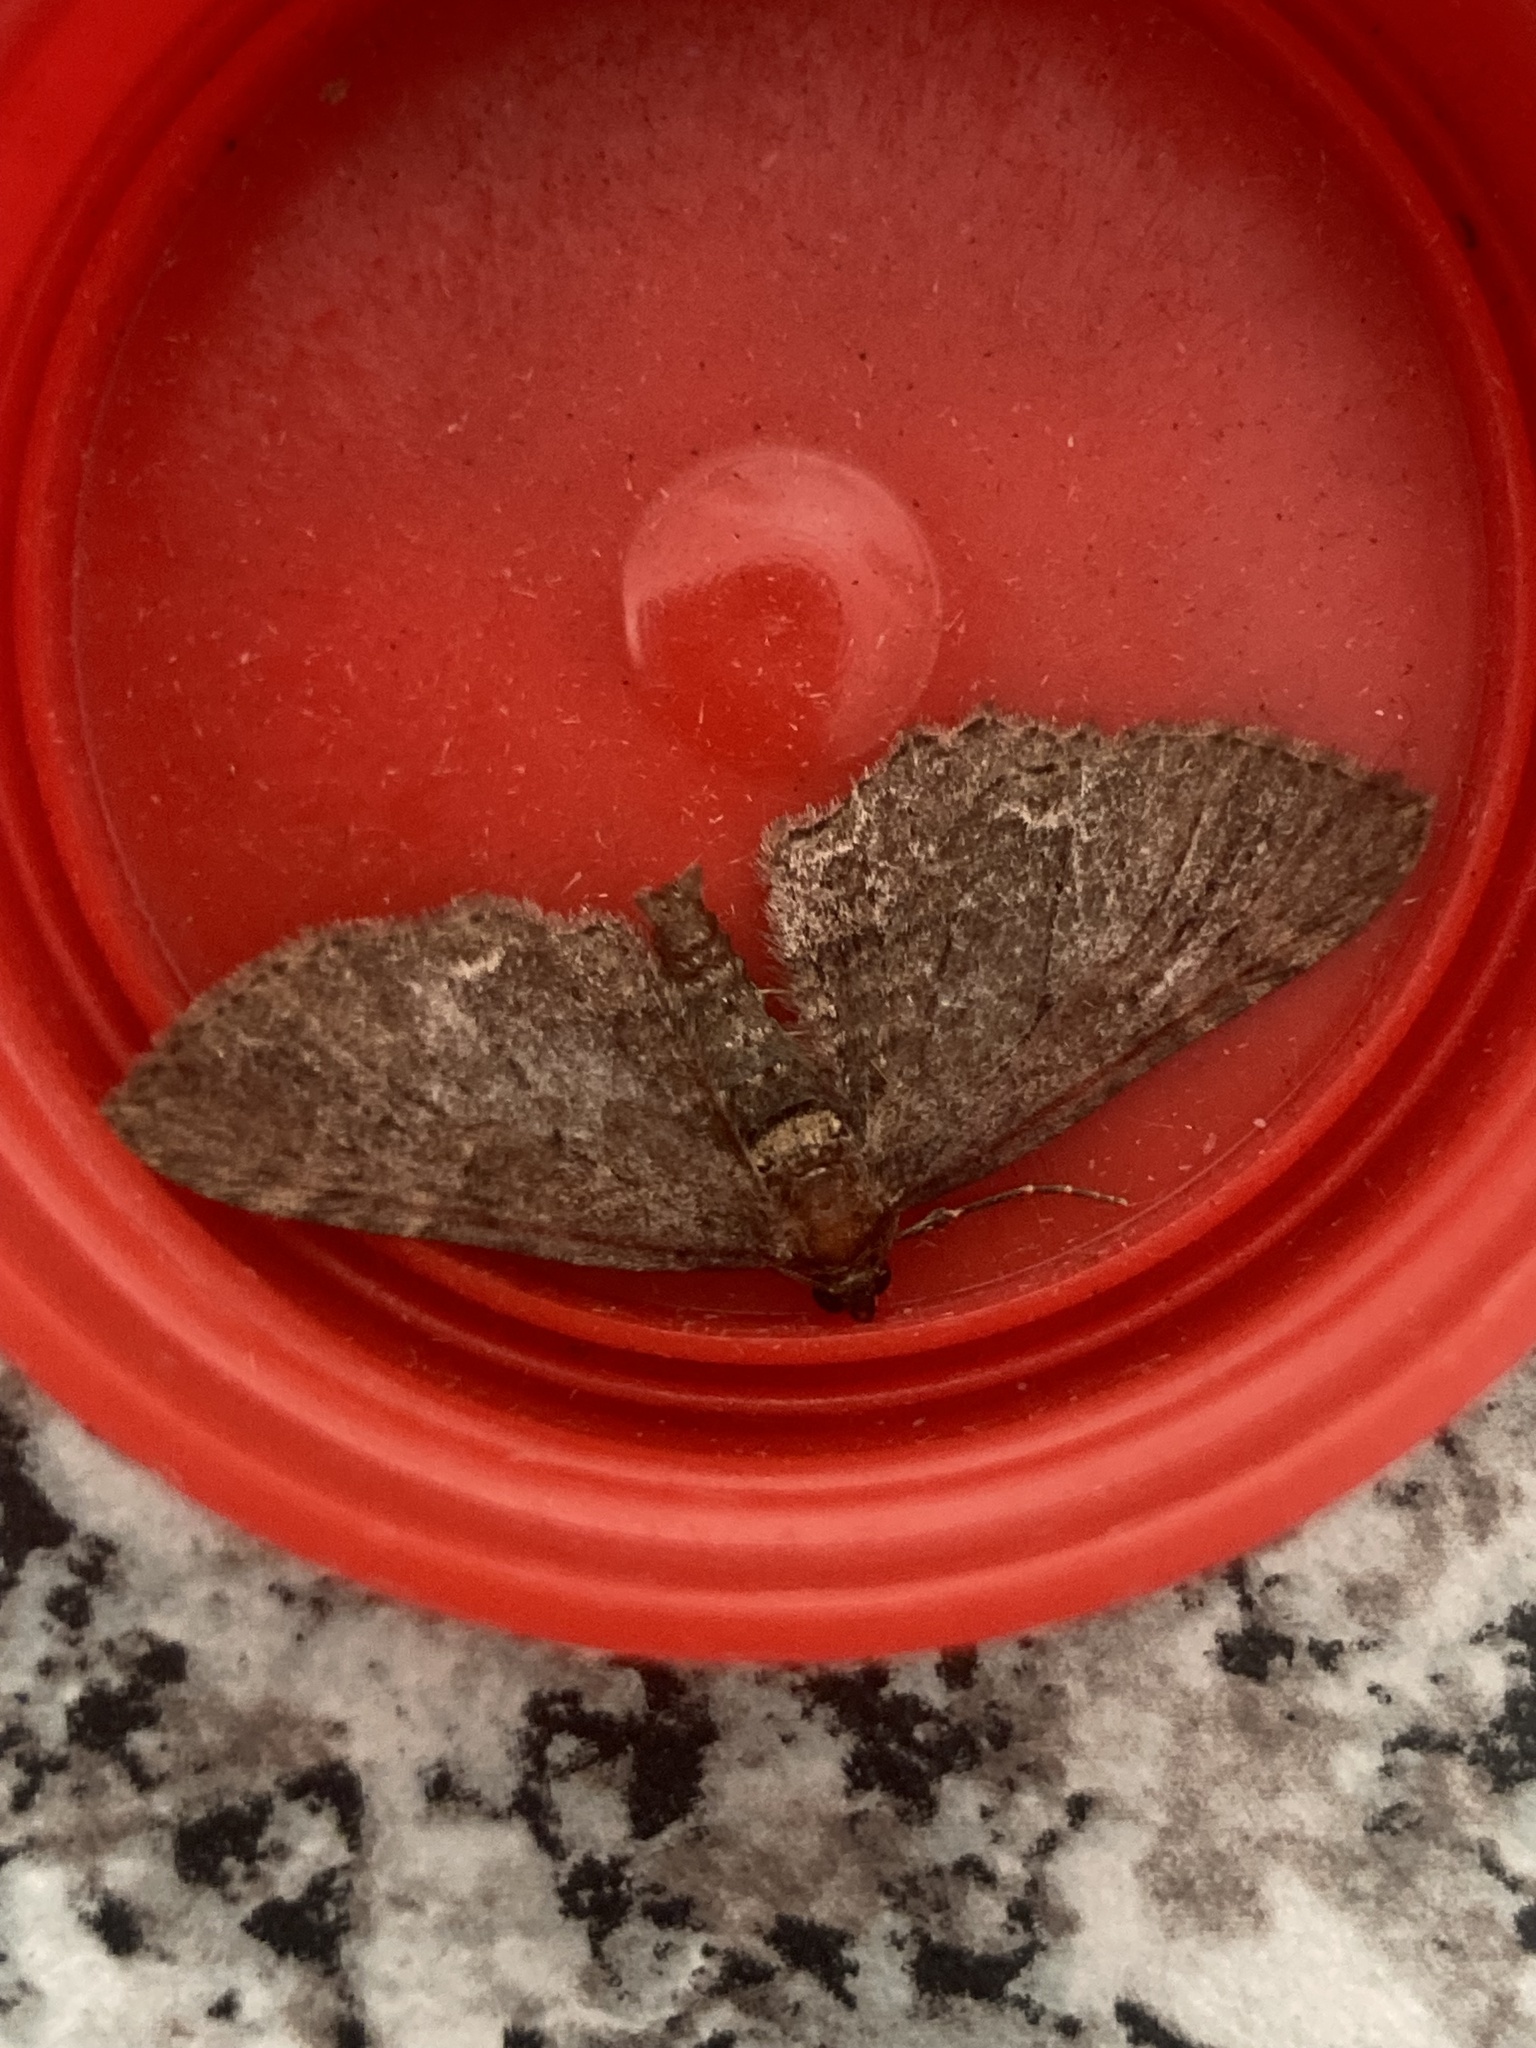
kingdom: Animalia
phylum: Arthropoda
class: Insecta
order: Lepidoptera
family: Geometridae
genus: Horisme
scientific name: Horisme scorteata
